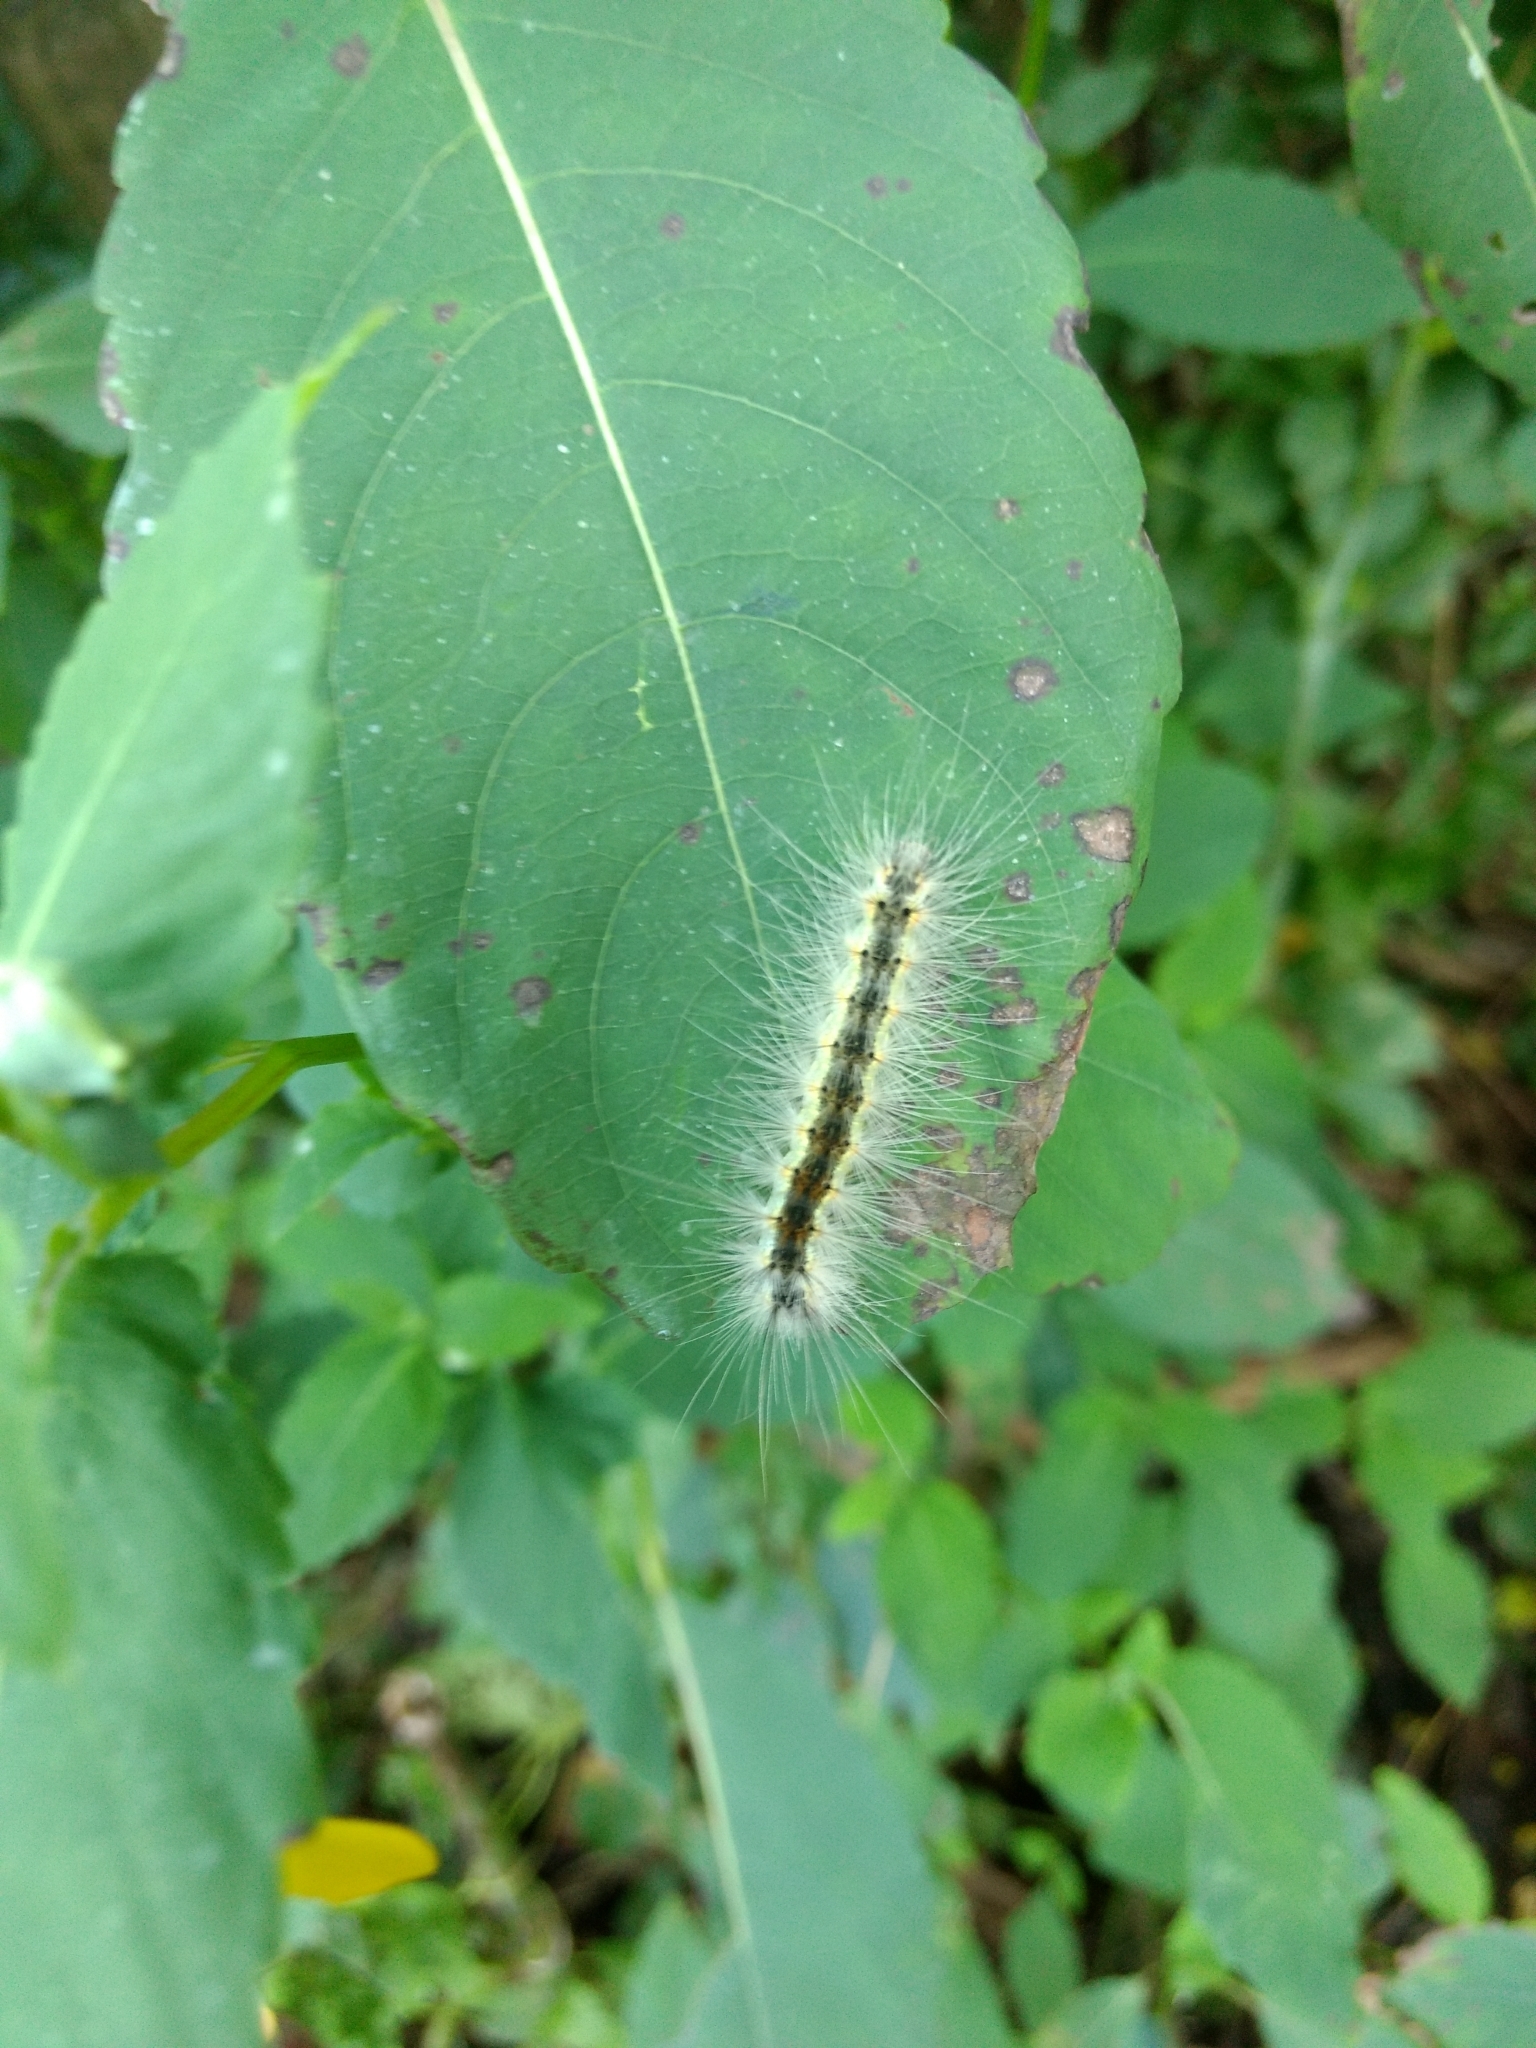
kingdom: Animalia
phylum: Arthropoda
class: Insecta
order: Lepidoptera
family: Erebidae
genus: Hyphantria
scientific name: Hyphantria cunea
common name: American white moth
